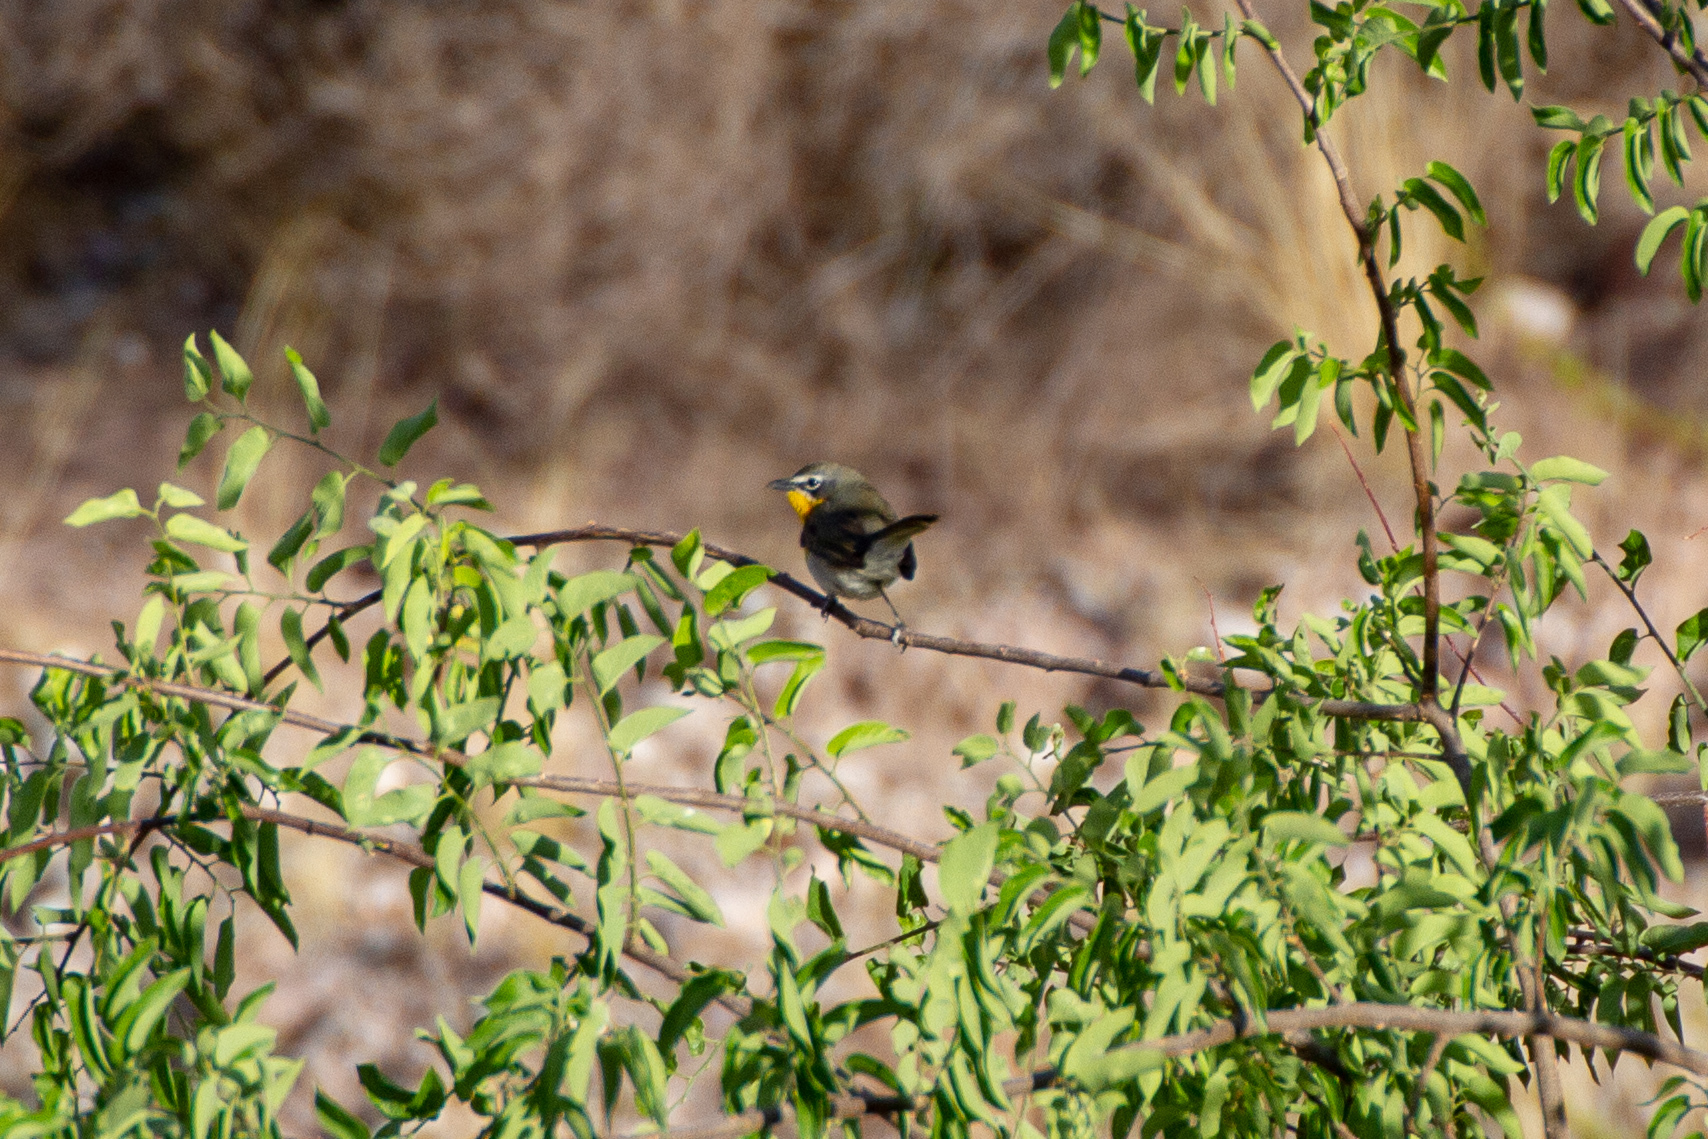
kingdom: Animalia
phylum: Chordata
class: Aves
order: Passeriformes
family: Parulidae
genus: Icteria
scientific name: Icteria virens
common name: Yellow-breasted chat
